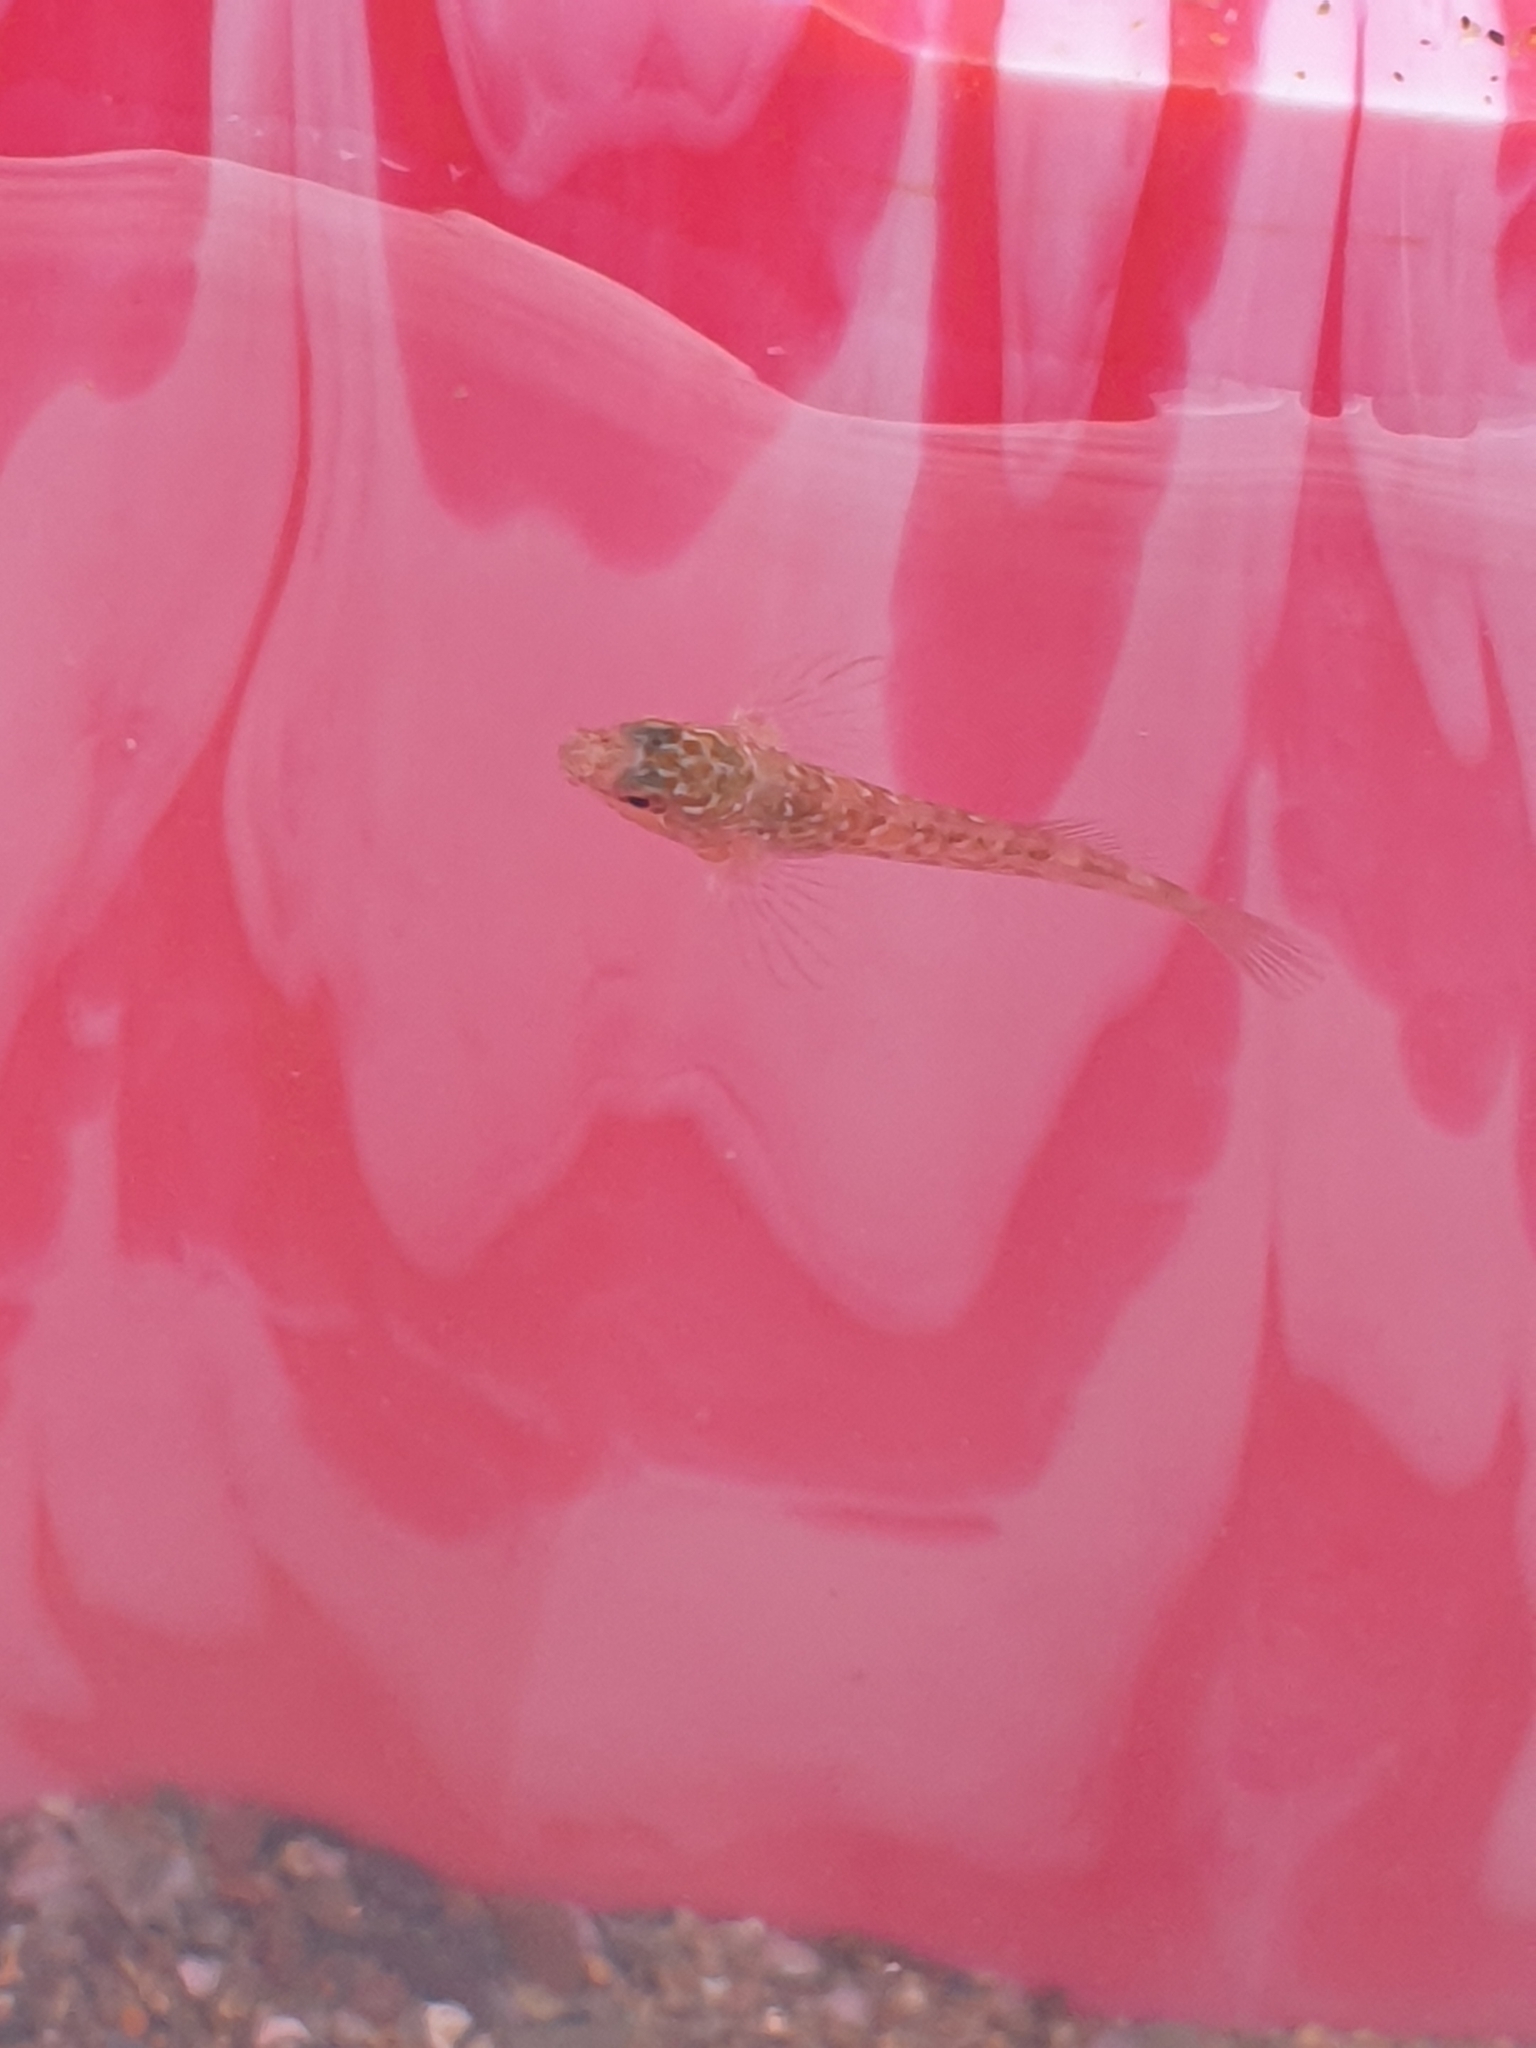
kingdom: Animalia
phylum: Chordata
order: Perciformes
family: Blenniidae
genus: Lipophrys
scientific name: Lipophrys pholis
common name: Shanny
